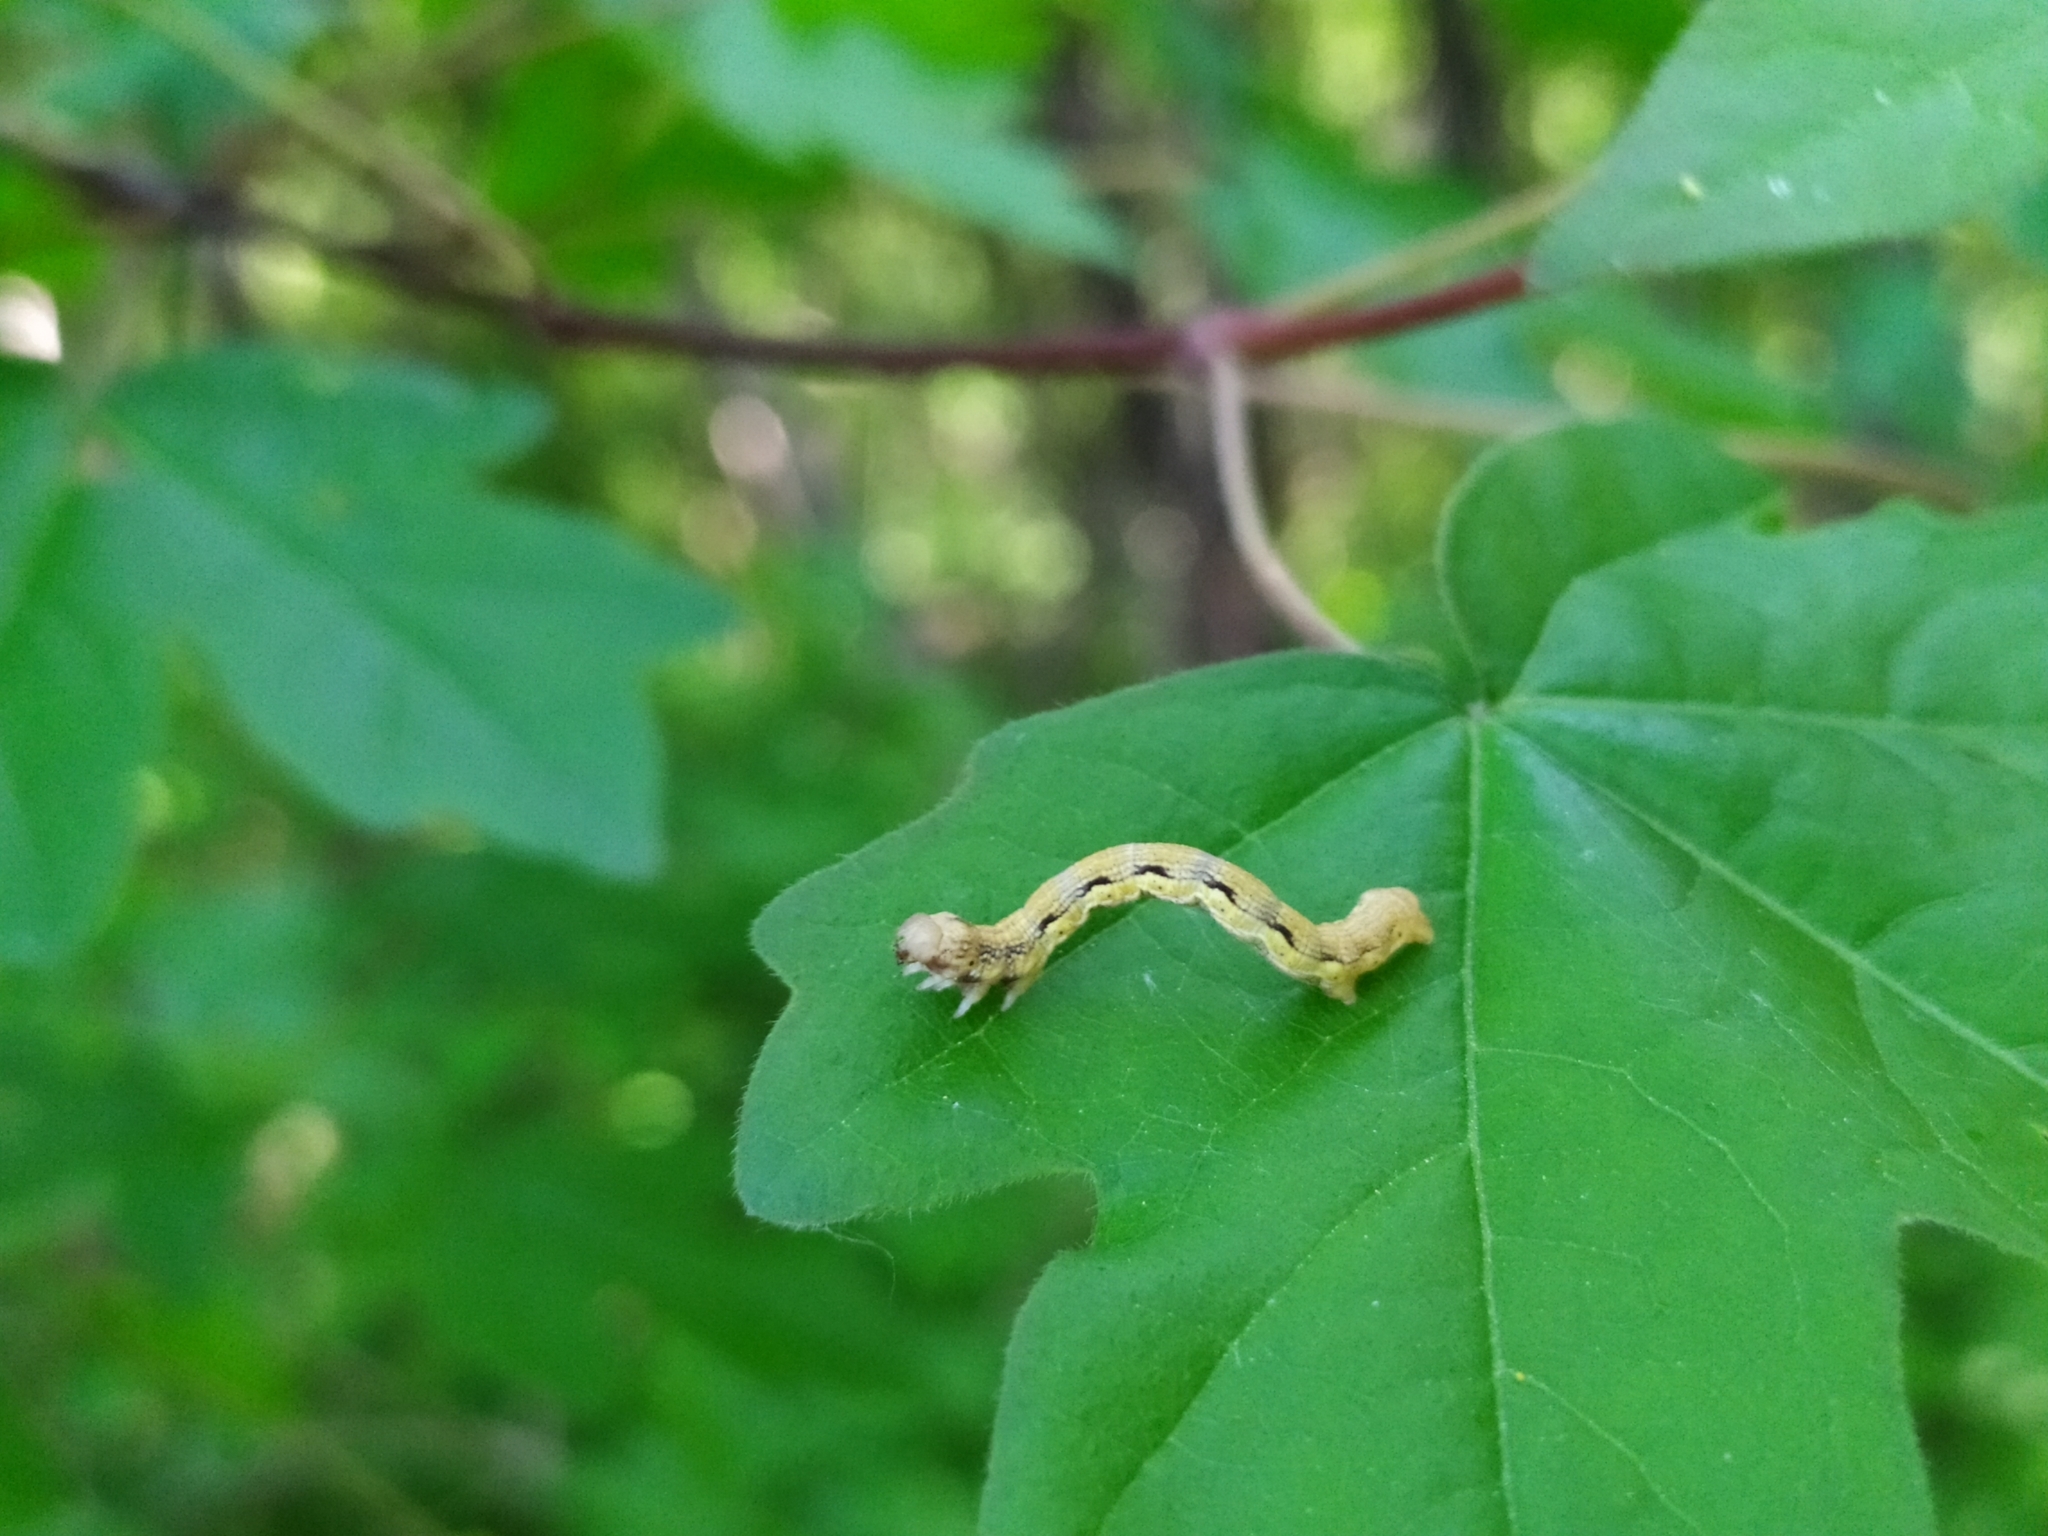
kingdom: Animalia
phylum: Arthropoda
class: Insecta
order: Lepidoptera
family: Geometridae
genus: Erannis
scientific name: Erannis defoliaria
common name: Mottled umber
